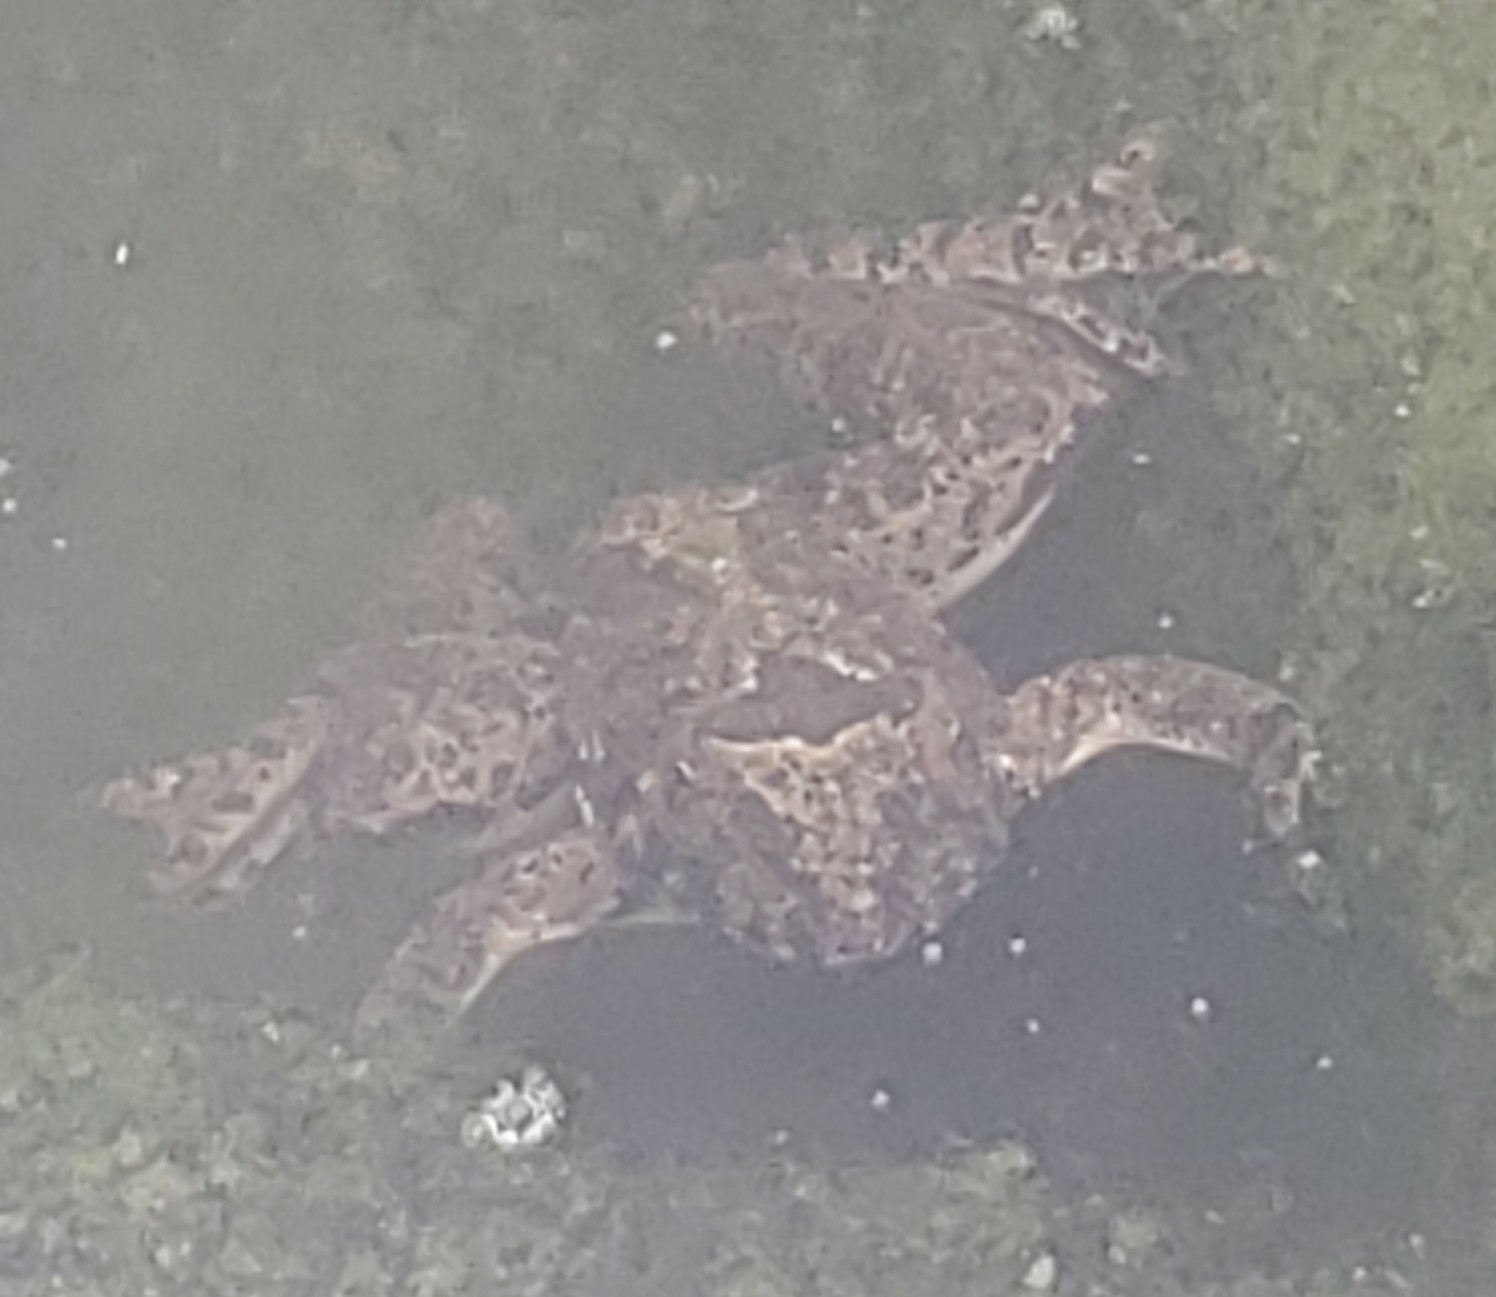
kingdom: Animalia
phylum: Chordata
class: Amphibia
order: Anura
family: Hylidae
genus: Acris
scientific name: Acris blanchardi
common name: Blanchard's cricket frog
